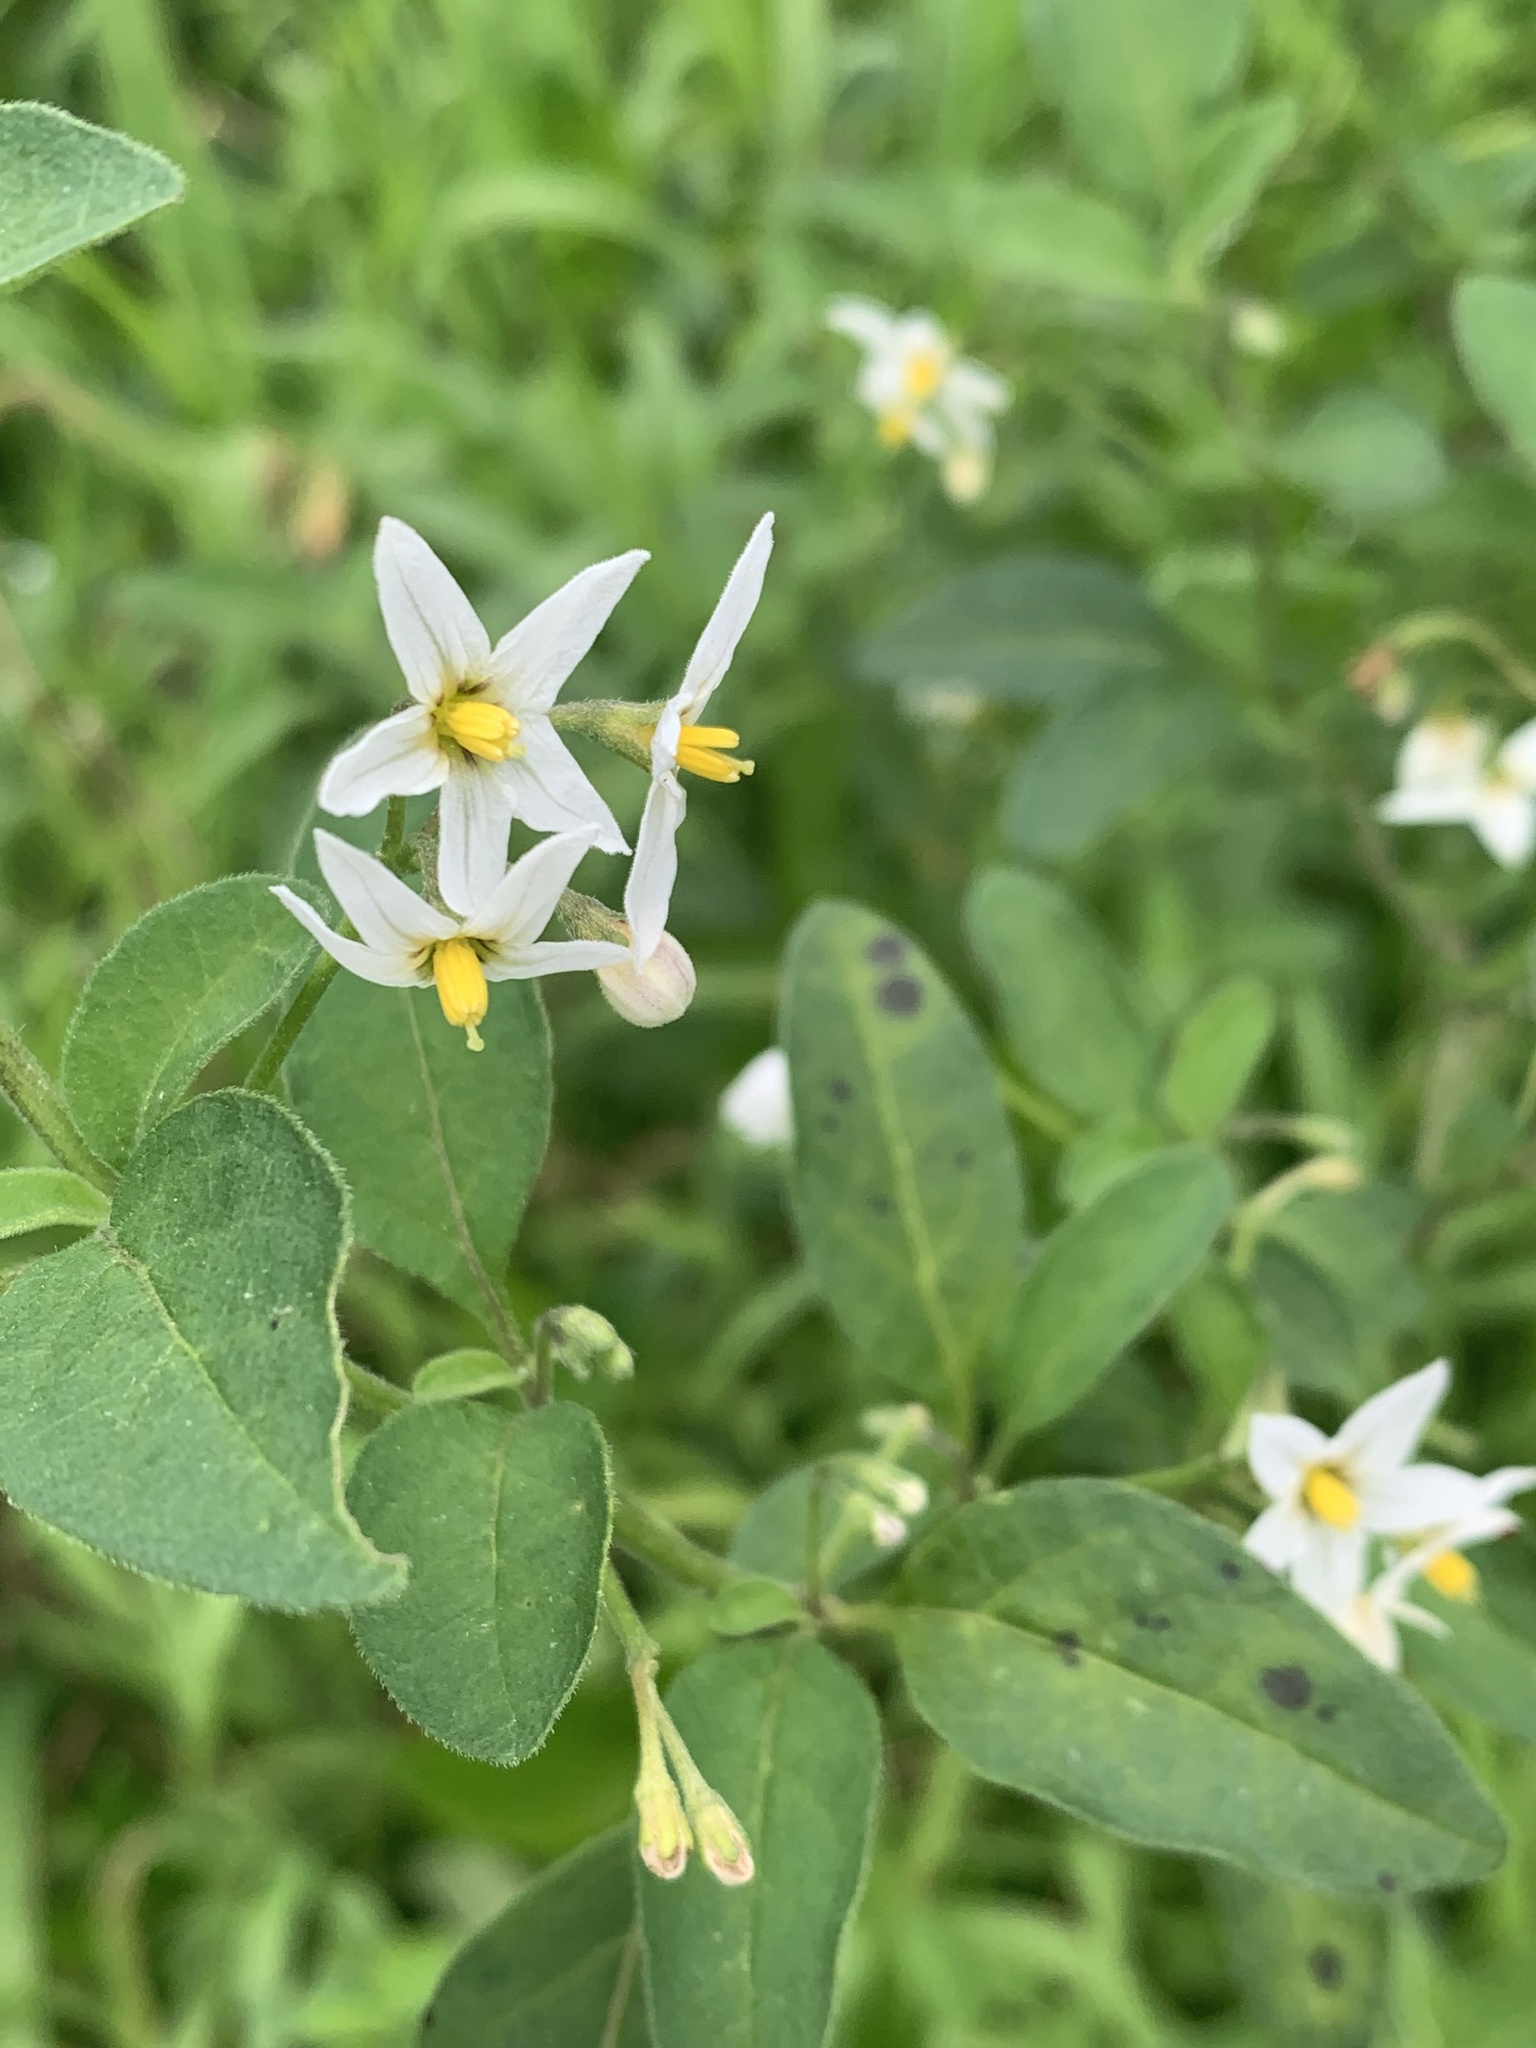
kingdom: Plantae
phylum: Tracheophyta
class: Magnoliopsida
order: Solanales
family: Solanaceae
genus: Solanum
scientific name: Solanum chenopodioides
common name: Tall nightshade
